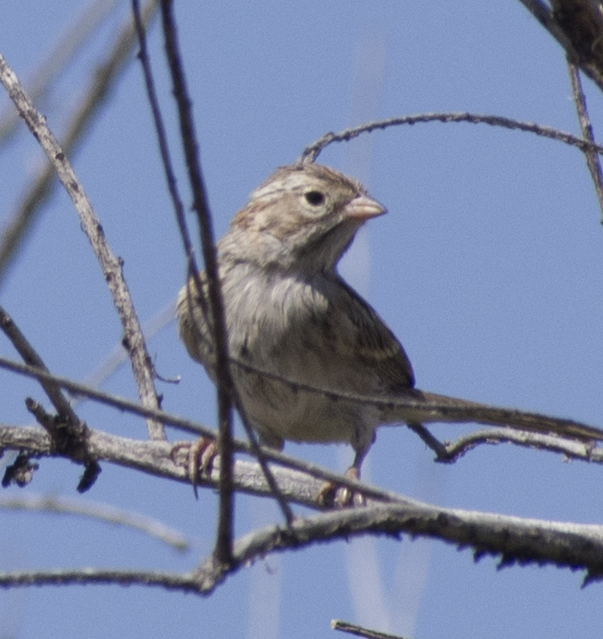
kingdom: Animalia
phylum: Chordata
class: Aves
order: Passeriformes
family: Passerellidae
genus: Spizella
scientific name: Spizella breweri
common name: Brewer's sparrow
